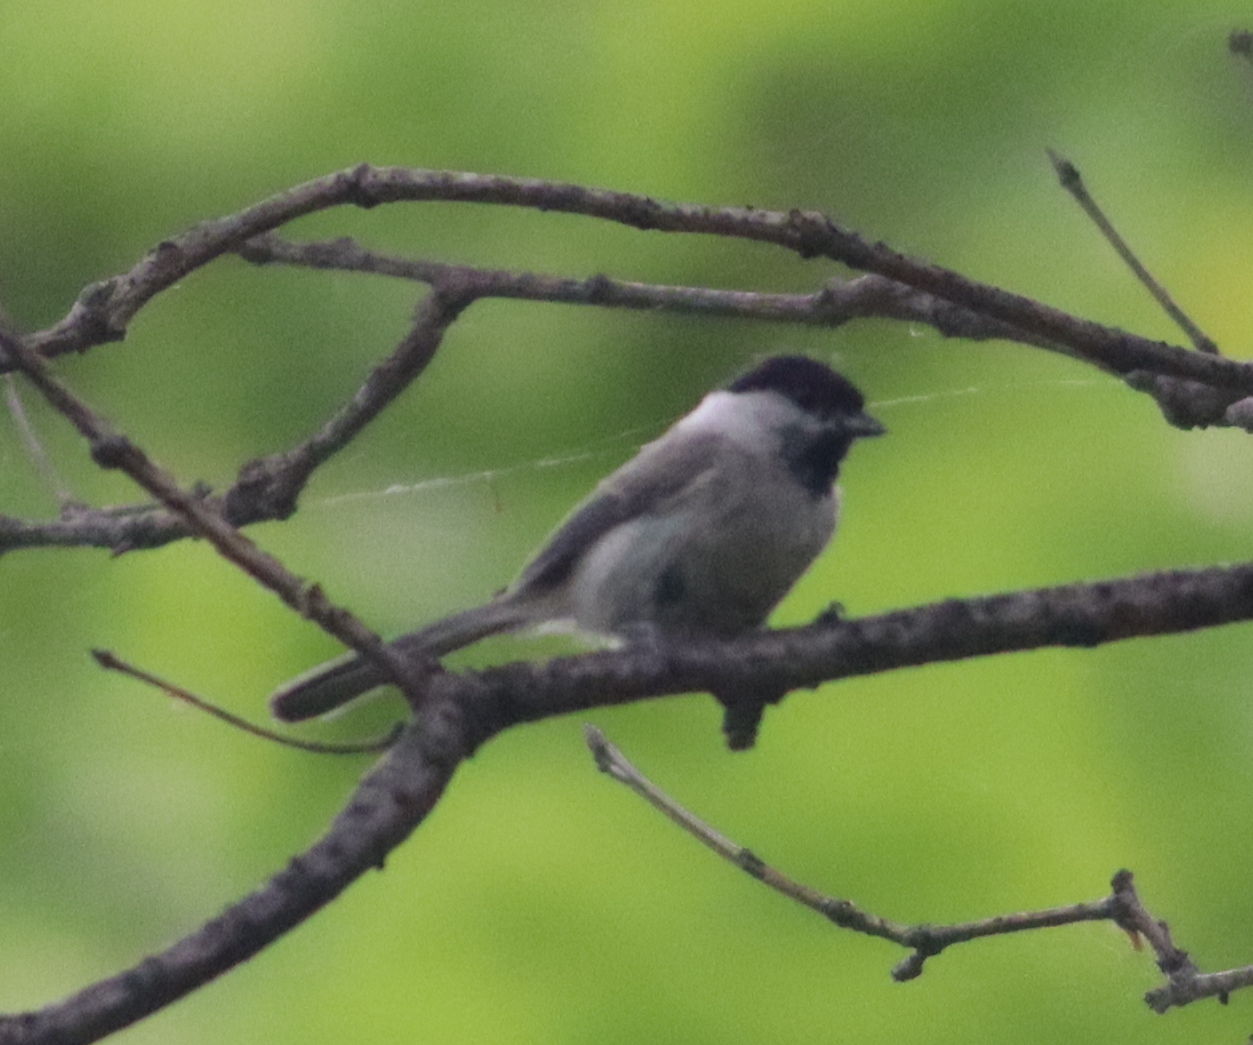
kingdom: Animalia
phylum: Chordata
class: Aves
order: Passeriformes
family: Paridae
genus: Poecile
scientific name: Poecile palustris
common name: Marsh tit
